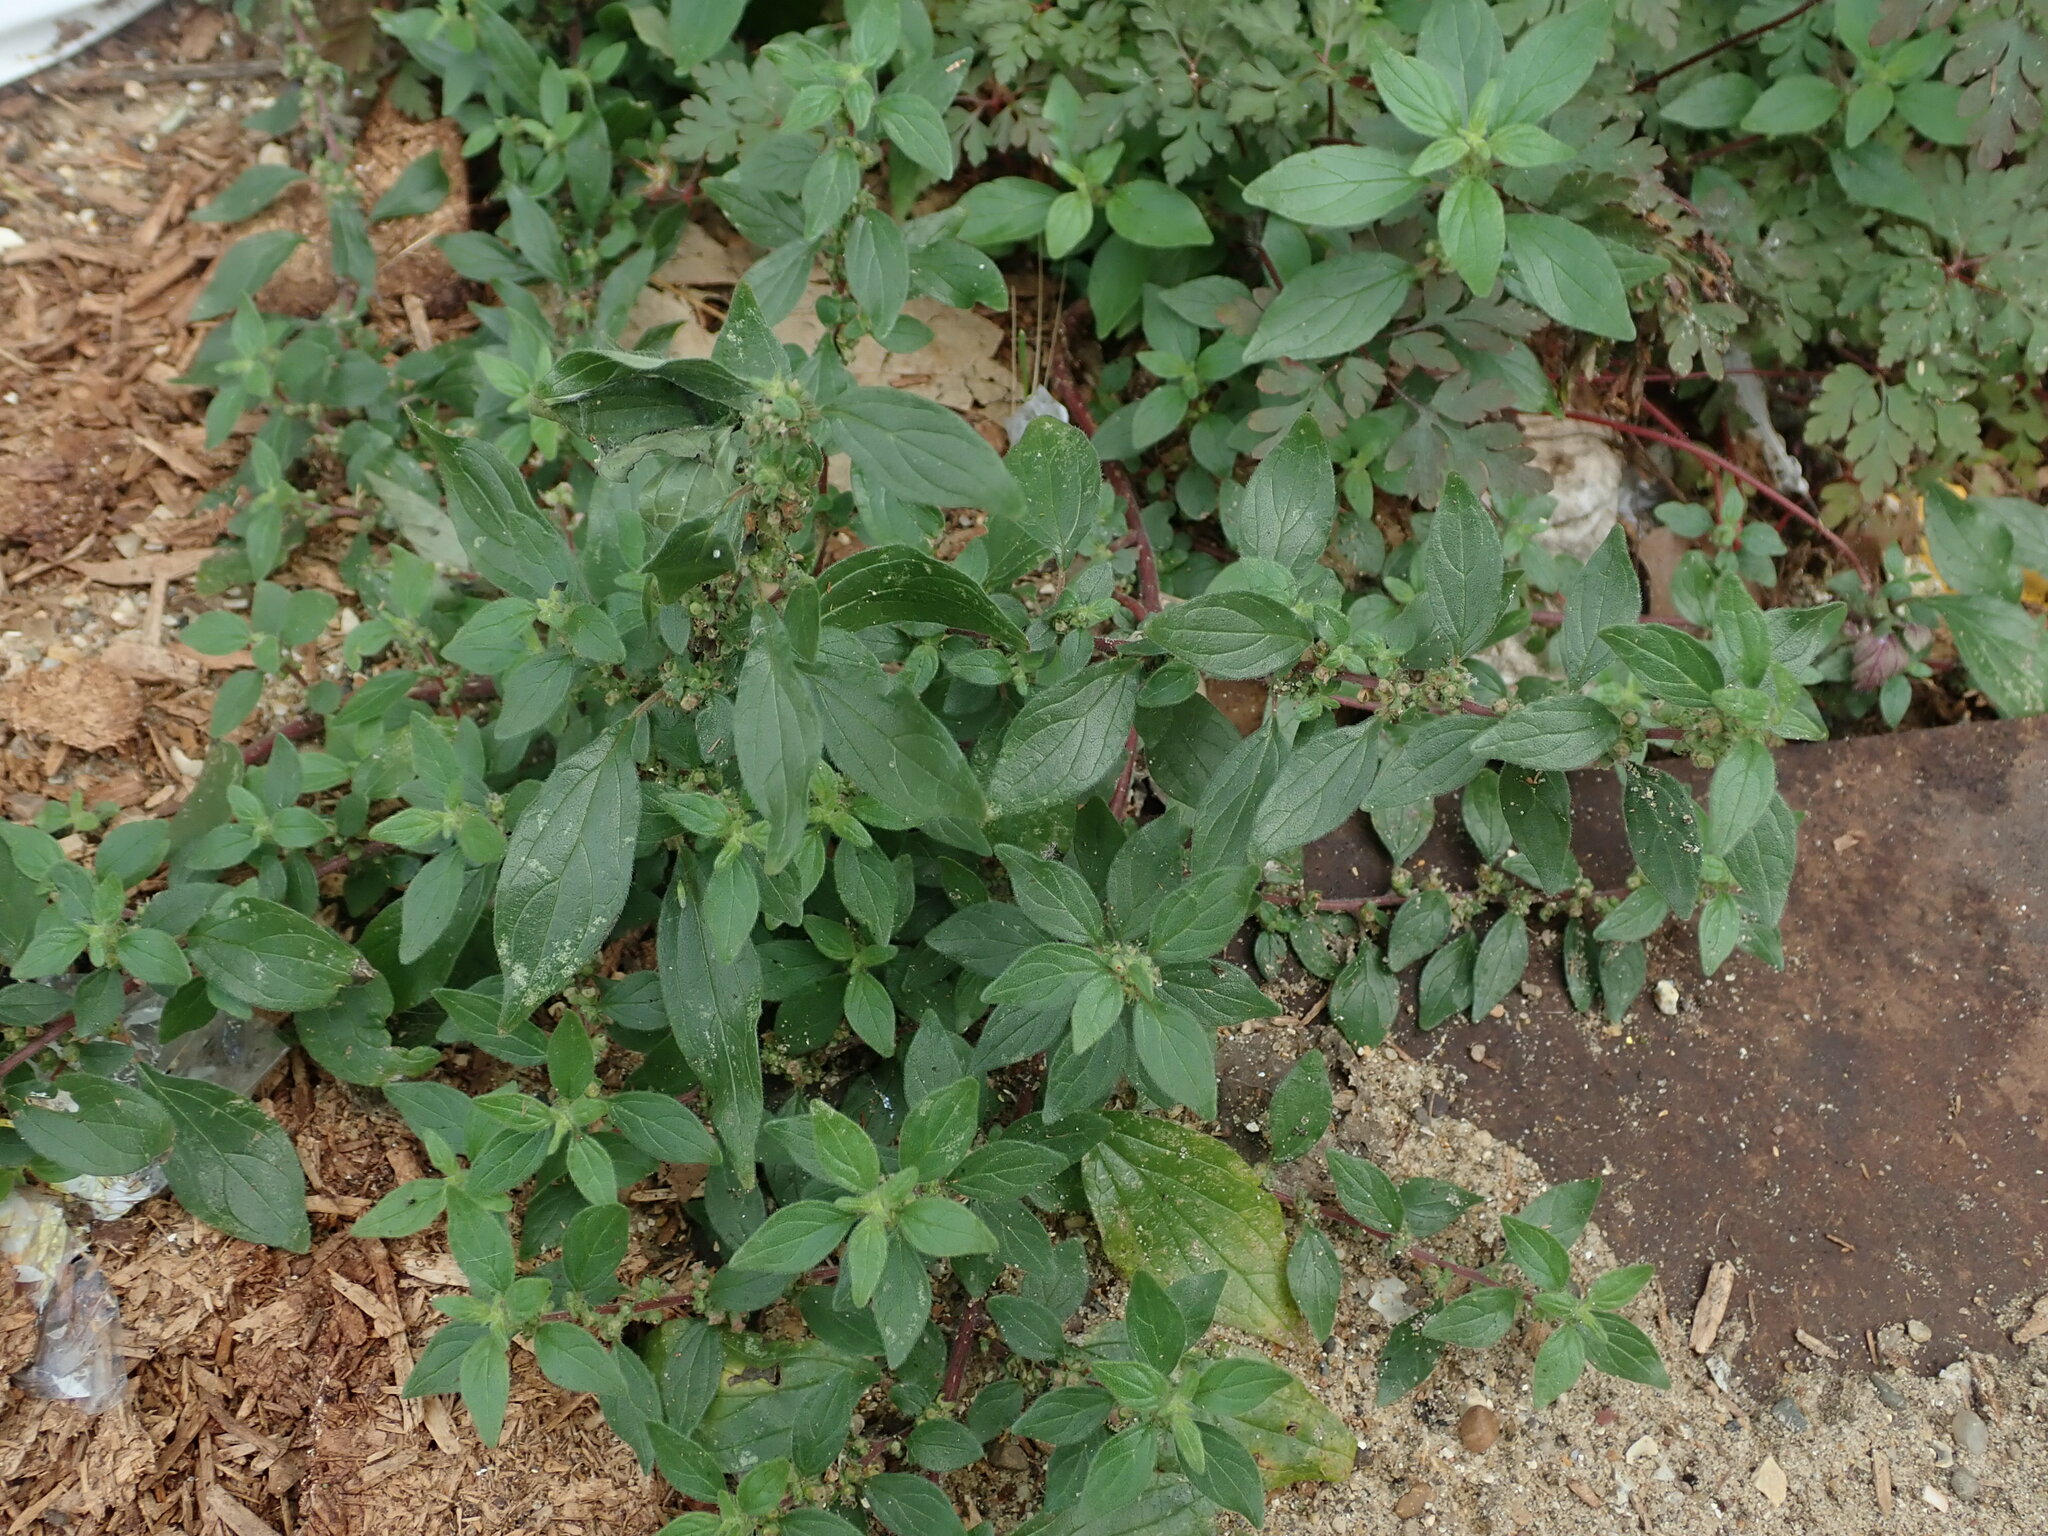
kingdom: Plantae
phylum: Tracheophyta
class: Magnoliopsida
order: Rosales
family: Urticaceae
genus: Parietaria
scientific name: Parietaria judaica
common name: Pellitory-of-the-wall
